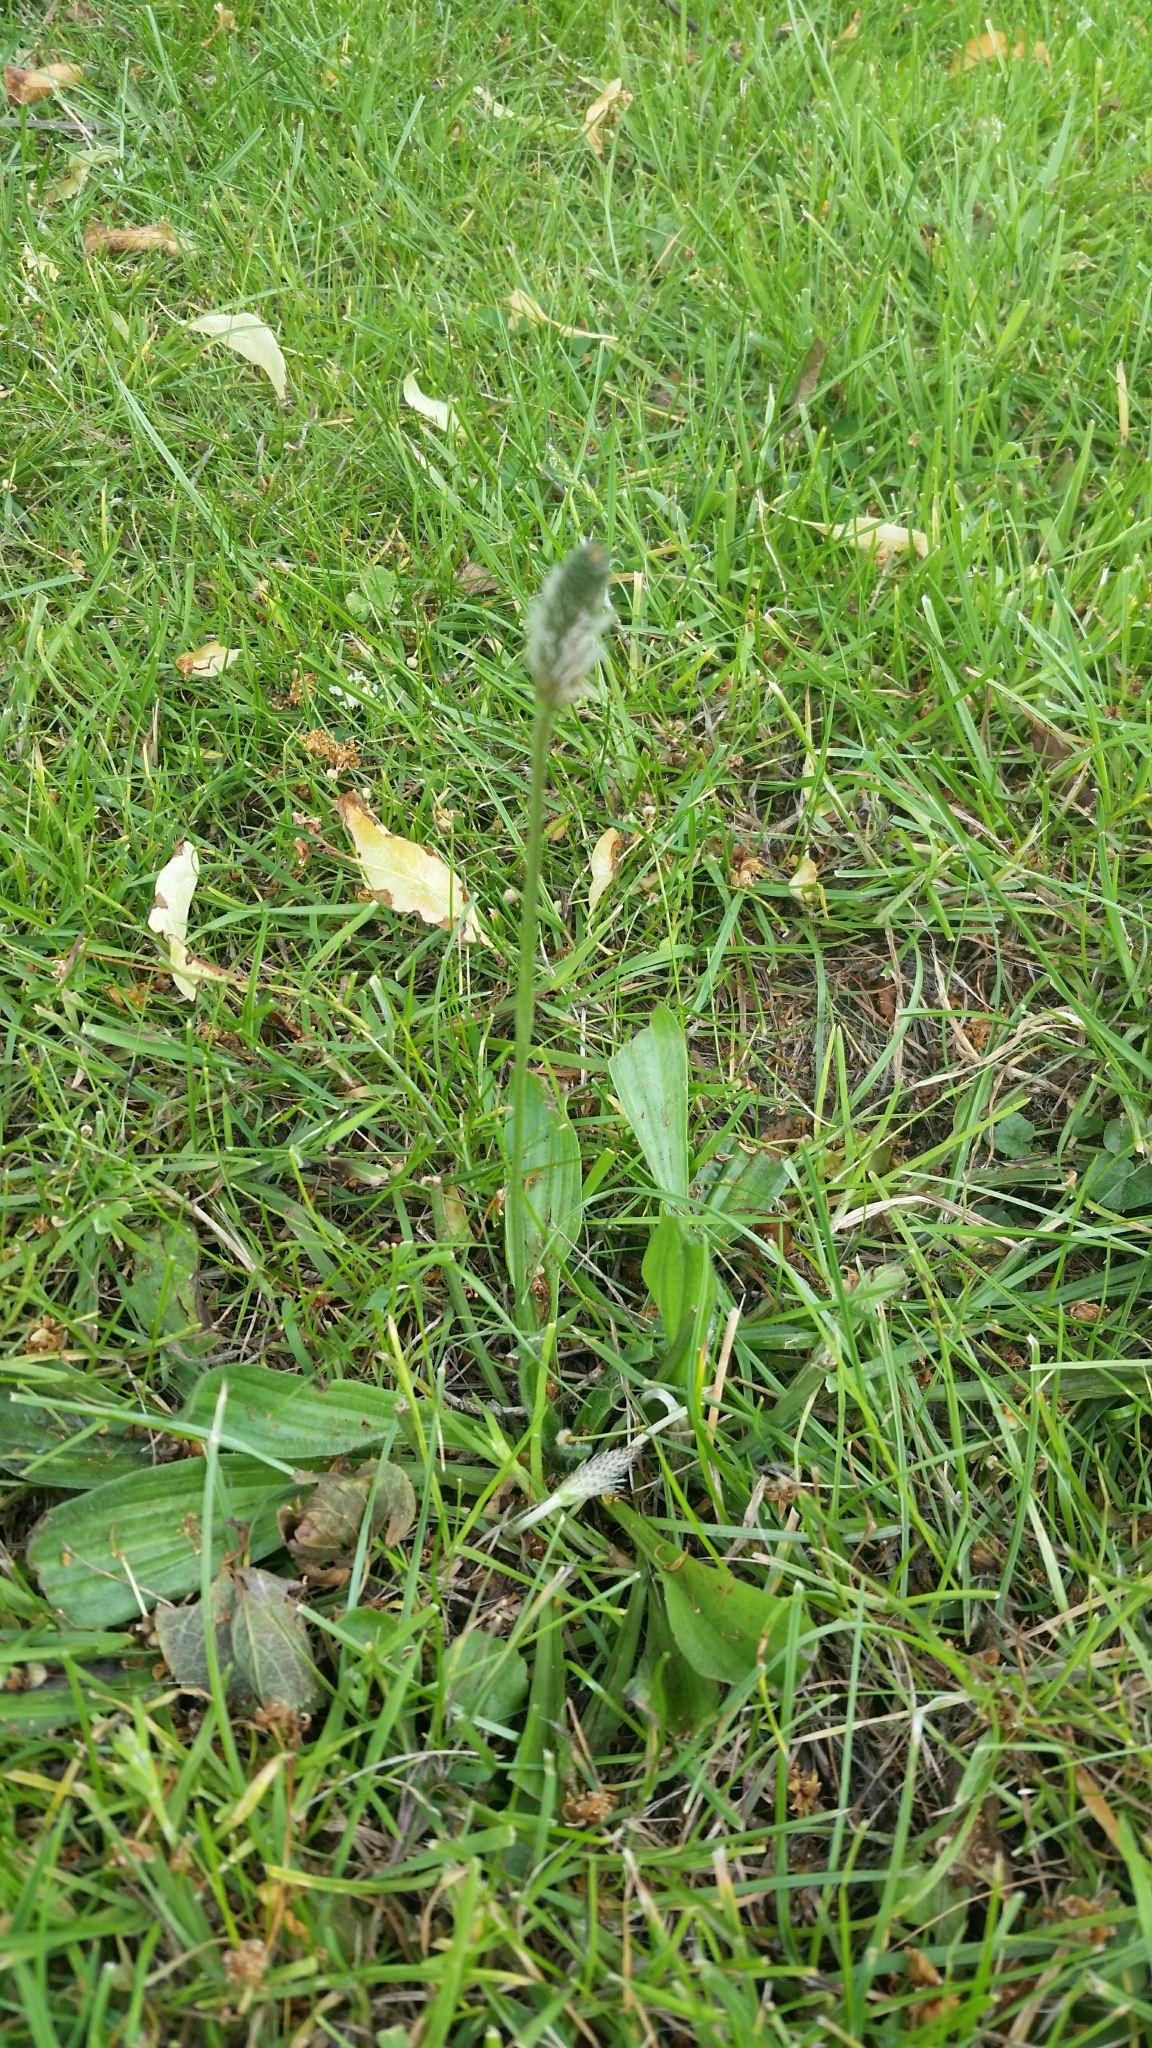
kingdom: Plantae
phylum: Tracheophyta
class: Magnoliopsida
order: Lamiales
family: Plantaginaceae
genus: Plantago
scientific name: Plantago lanceolata
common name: Ribwort plantain
